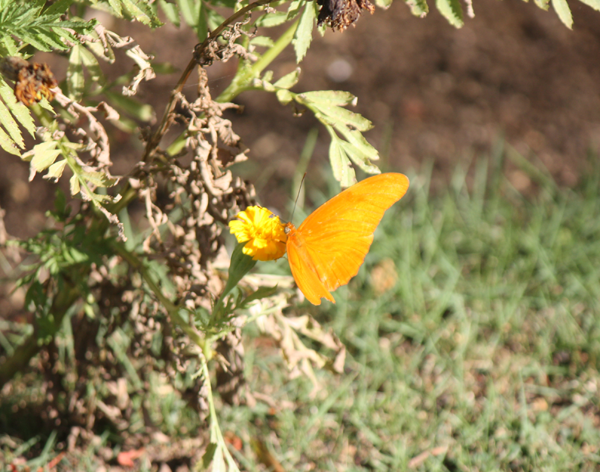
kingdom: Animalia
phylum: Arthropoda
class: Insecta
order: Lepidoptera
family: Nymphalidae
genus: Dryas
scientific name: Dryas iulia
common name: Flambeau
